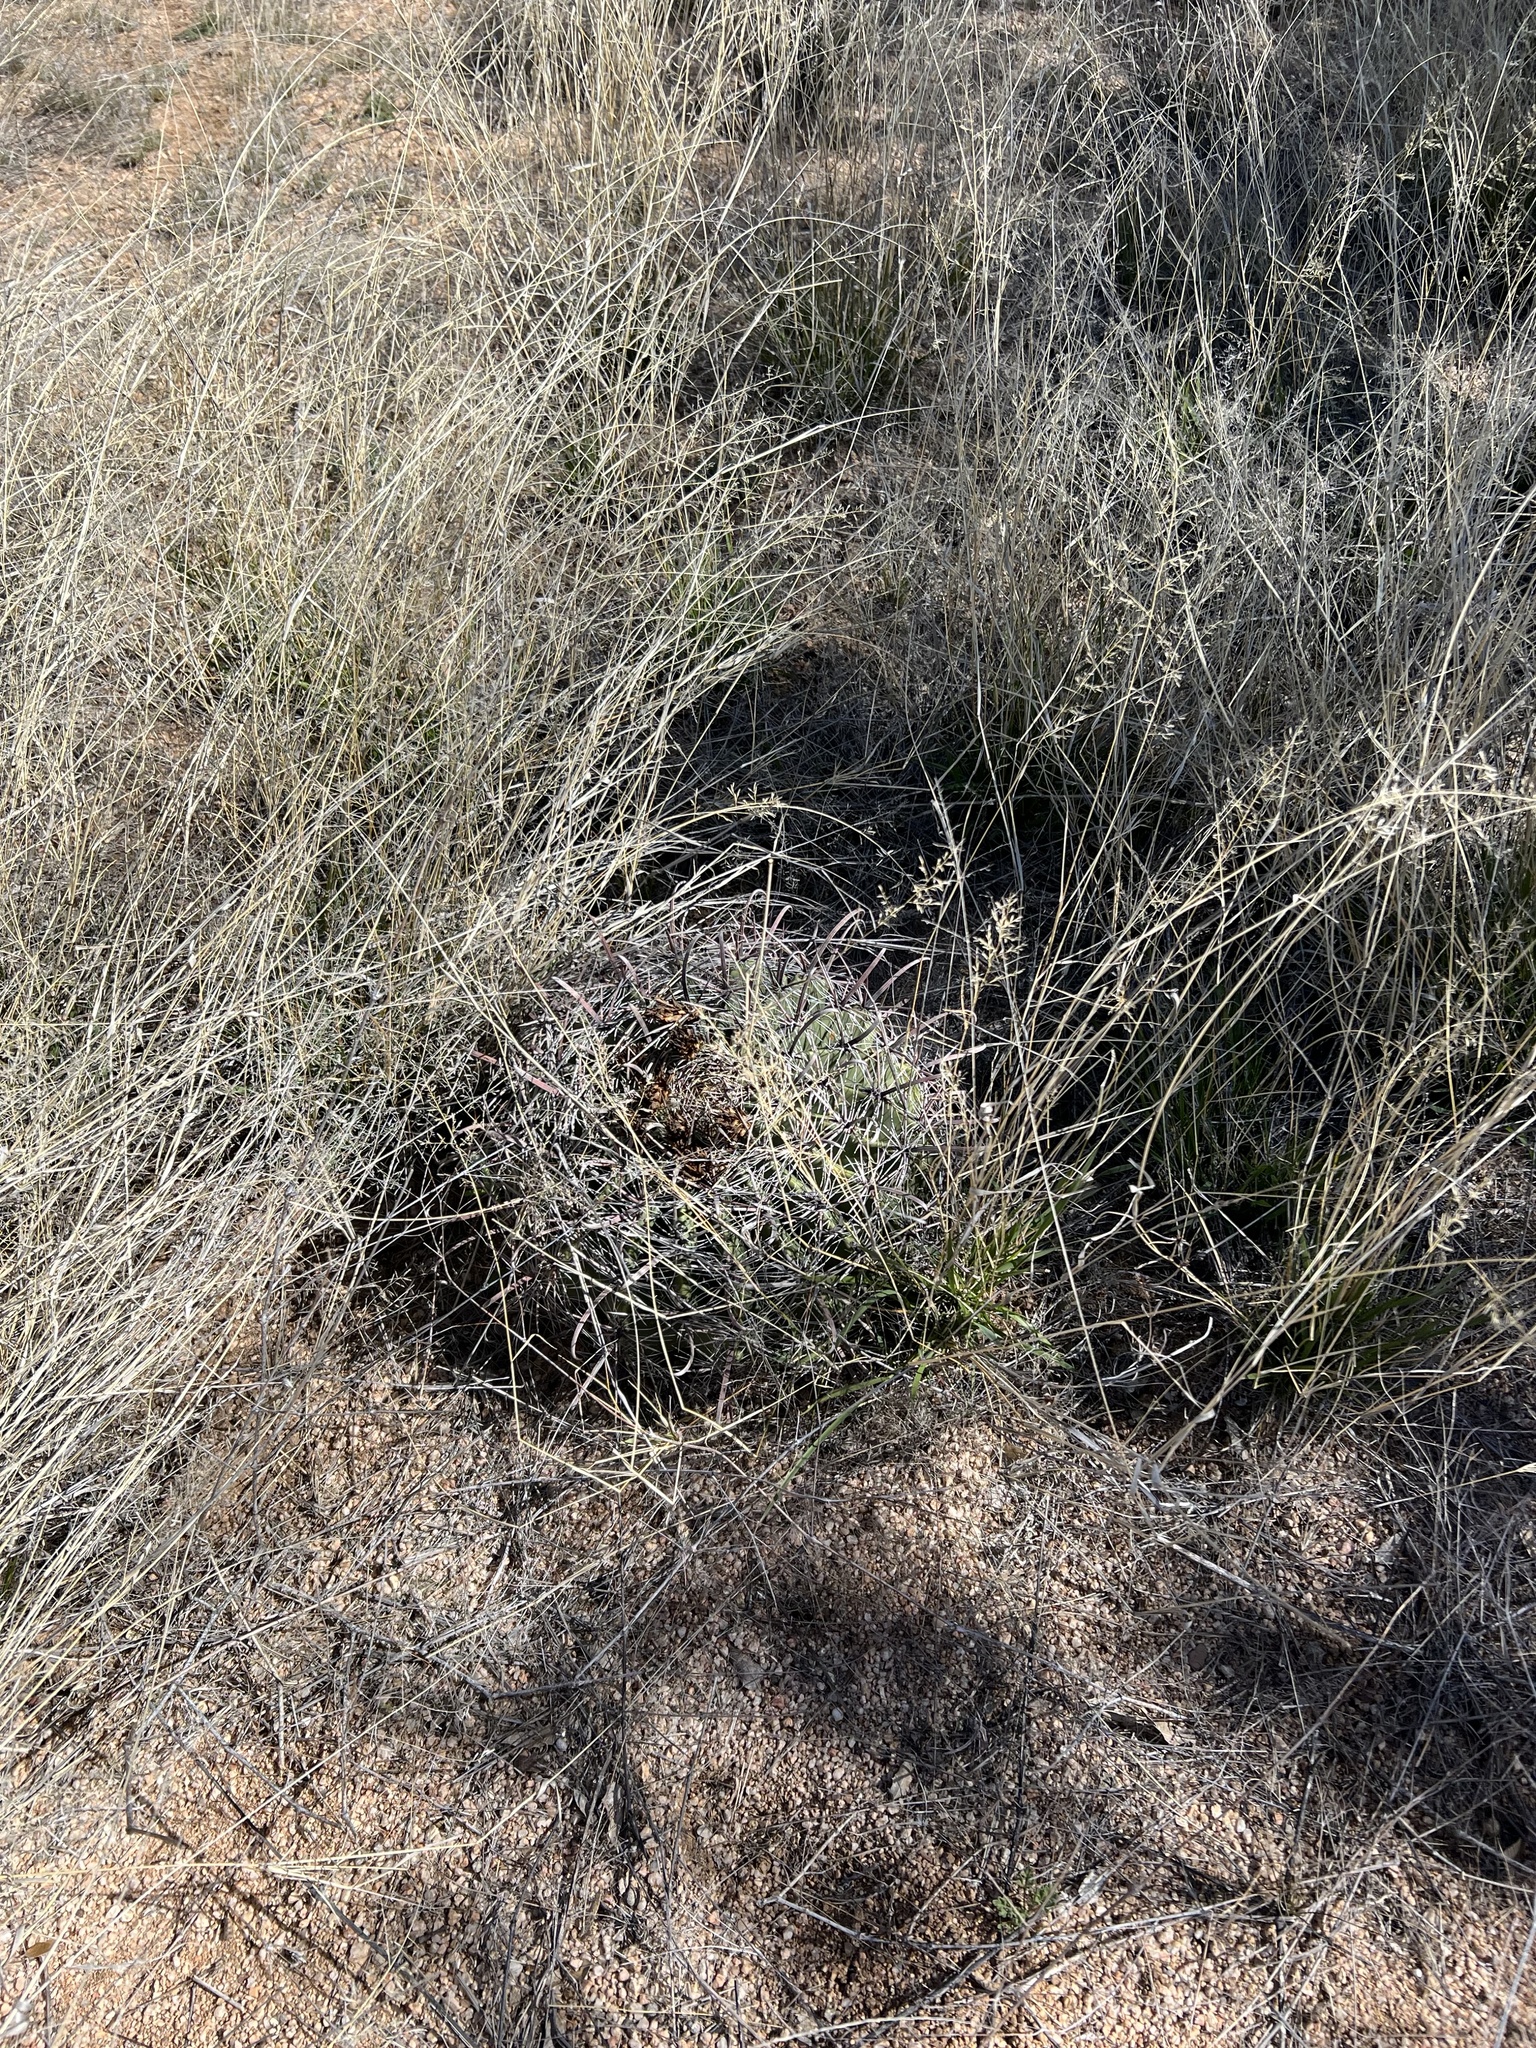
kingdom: Plantae
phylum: Tracheophyta
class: Magnoliopsida
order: Caryophyllales
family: Cactaceae
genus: Ferocactus
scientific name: Ferocactus wislizeni
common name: Candy barrel cactus
